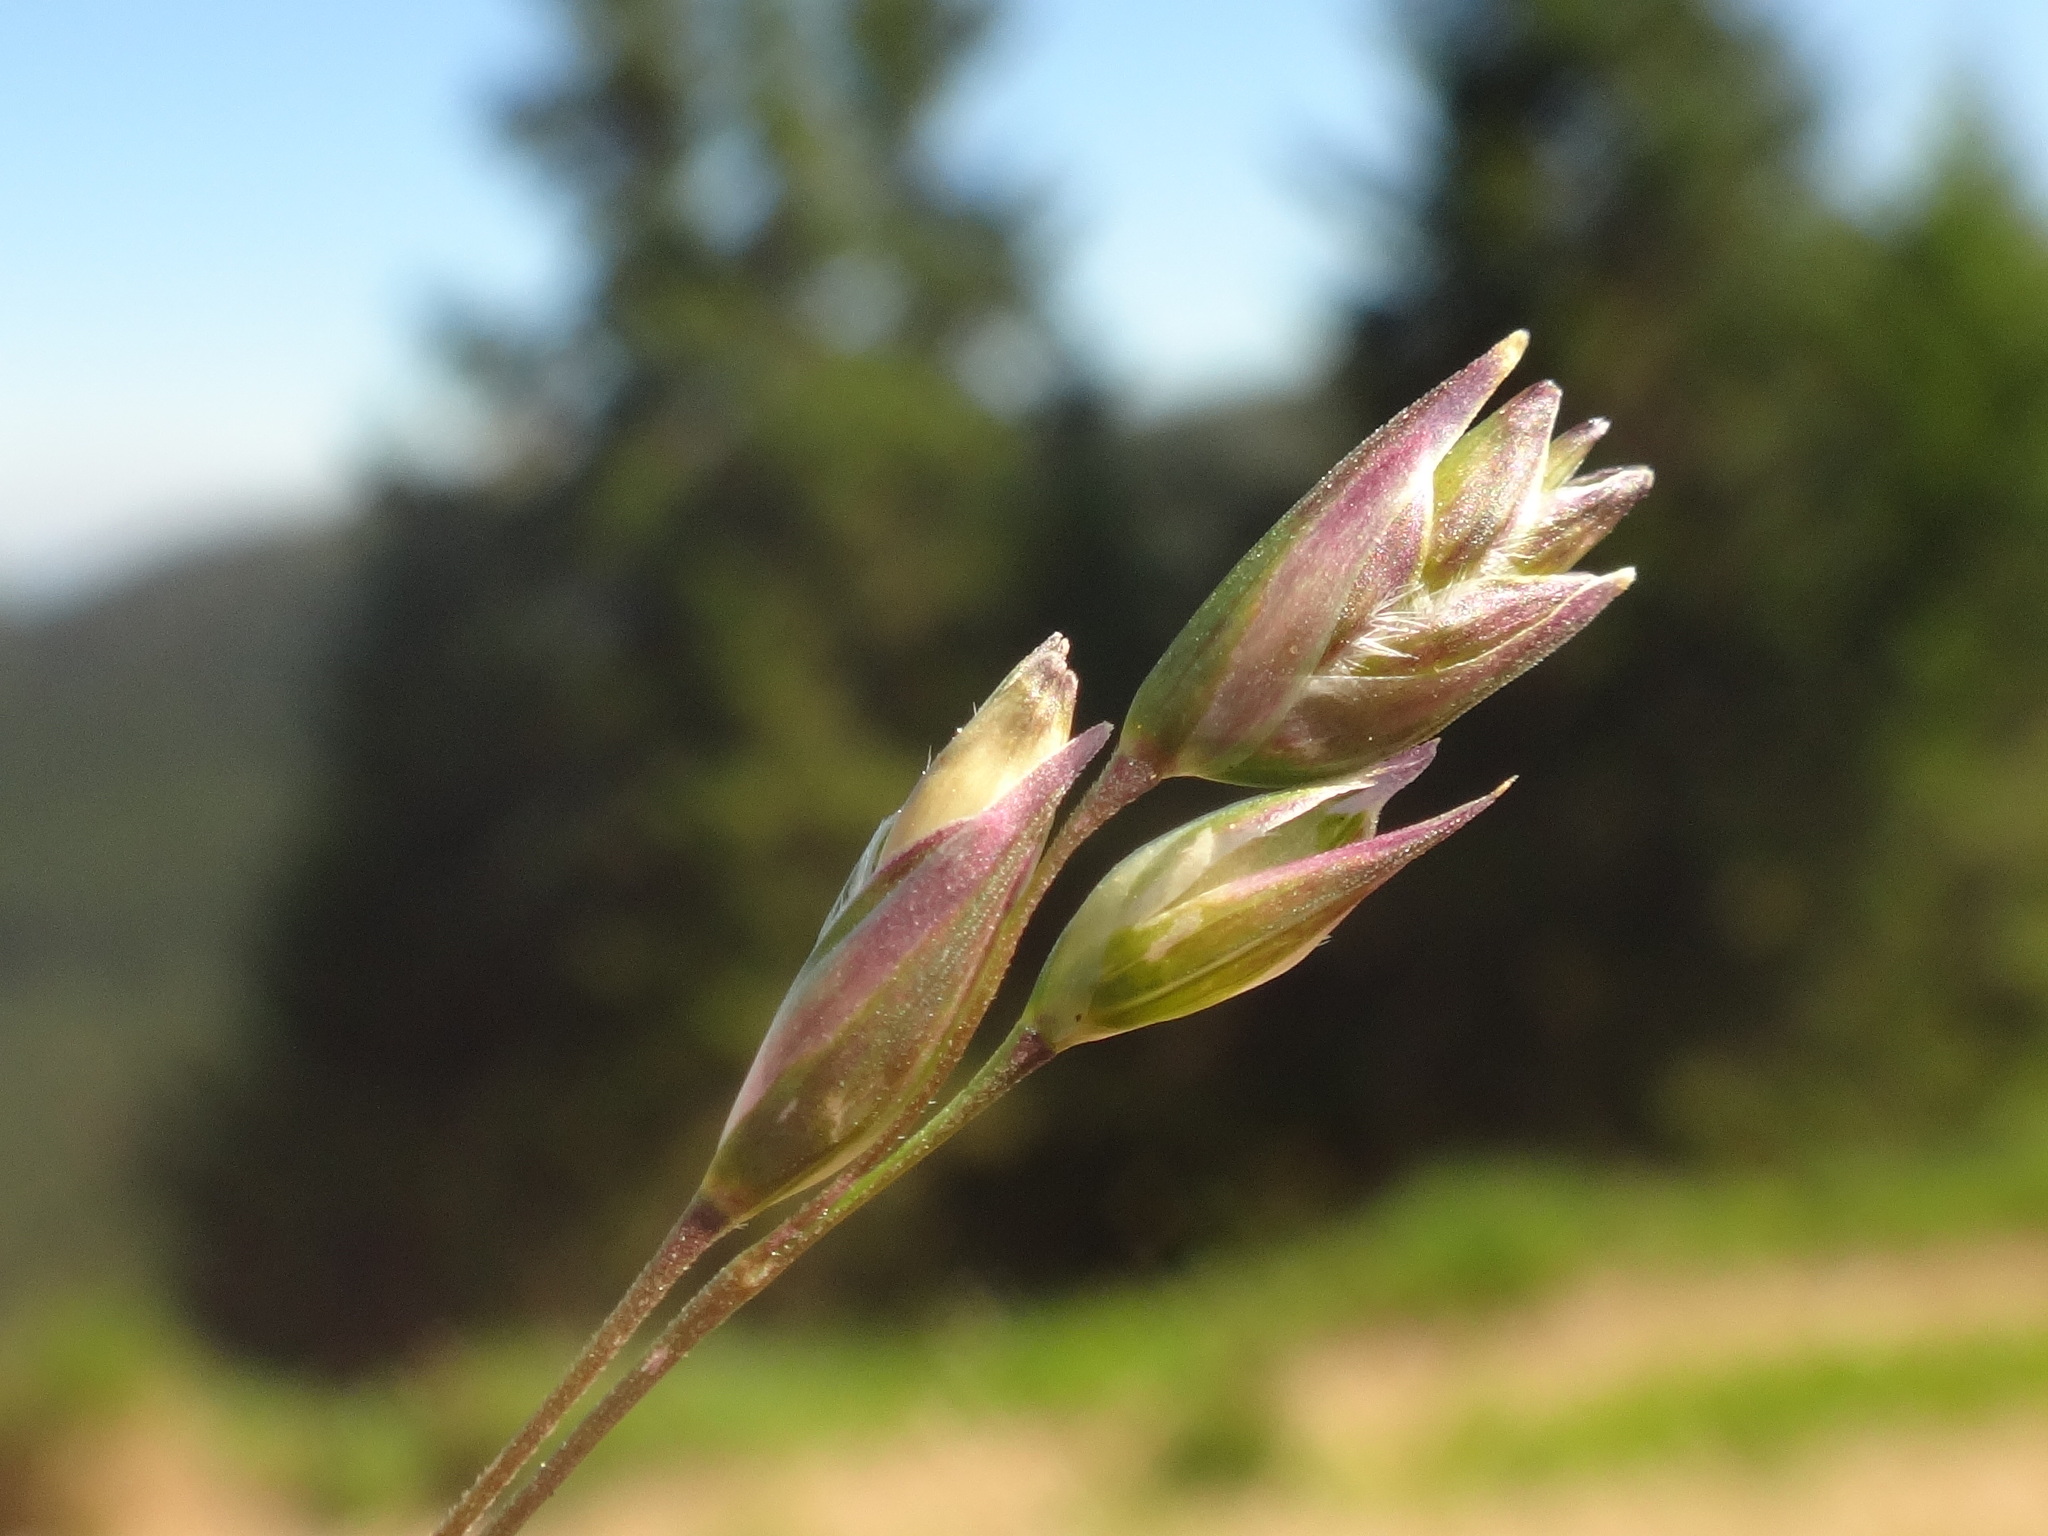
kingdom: Plantae
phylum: Tracheophyta
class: Liliopsida
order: Poales
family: Poaceae
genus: Danthonia
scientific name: Danthonia decumbens
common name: Common heathgrass
